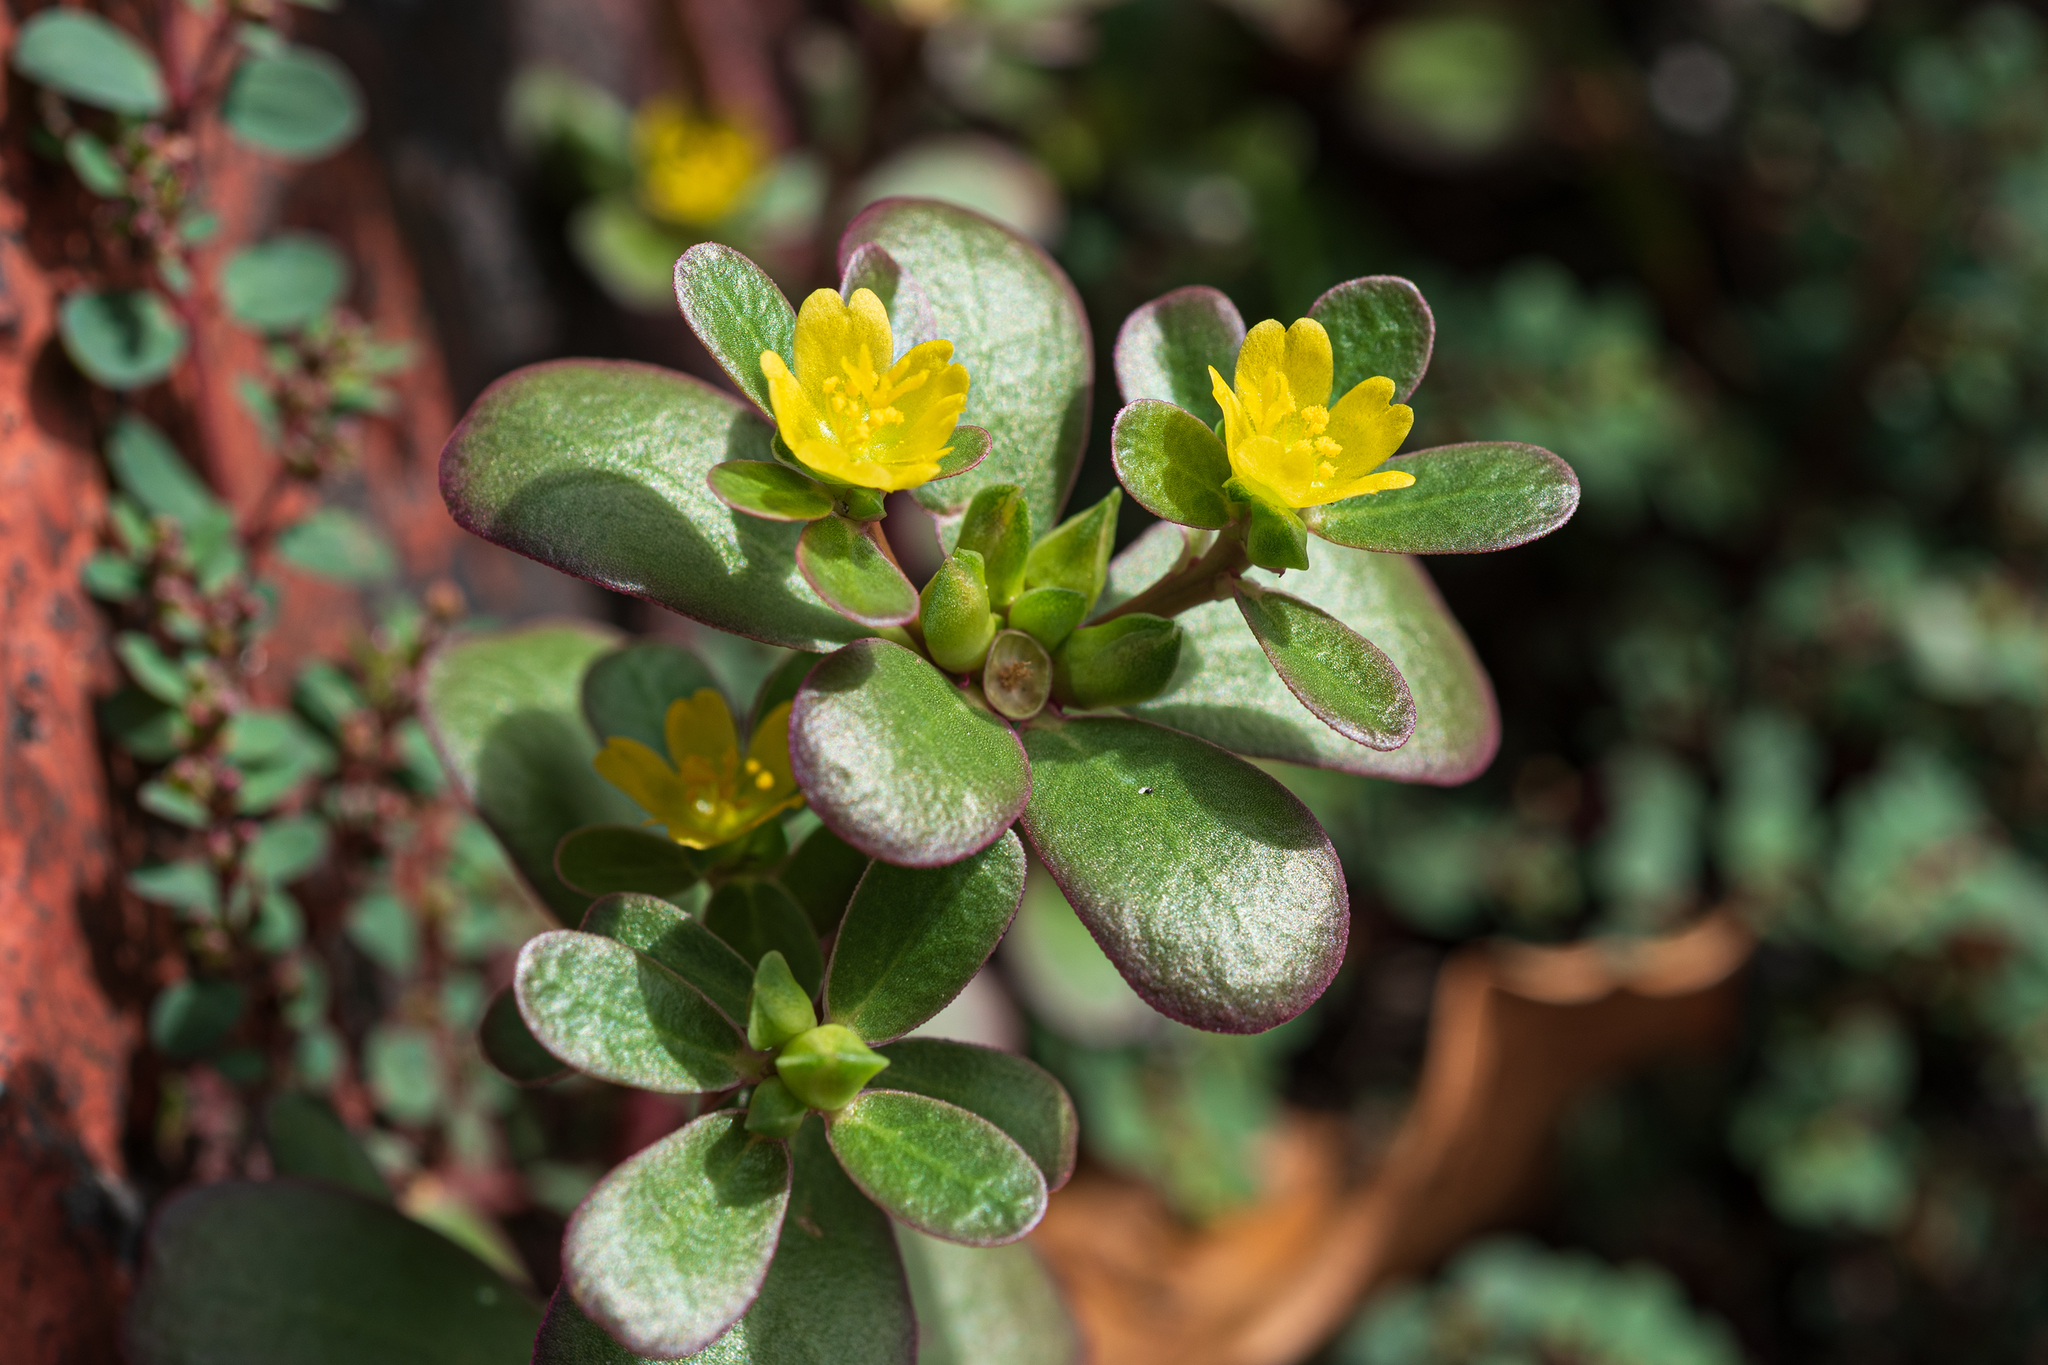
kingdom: Plantae
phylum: Tracheophyta
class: Magnoliopsida
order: Caryophyllales
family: Portulacaceae
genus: Portulaca
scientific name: Portulaca oleracea
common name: Common purslane
